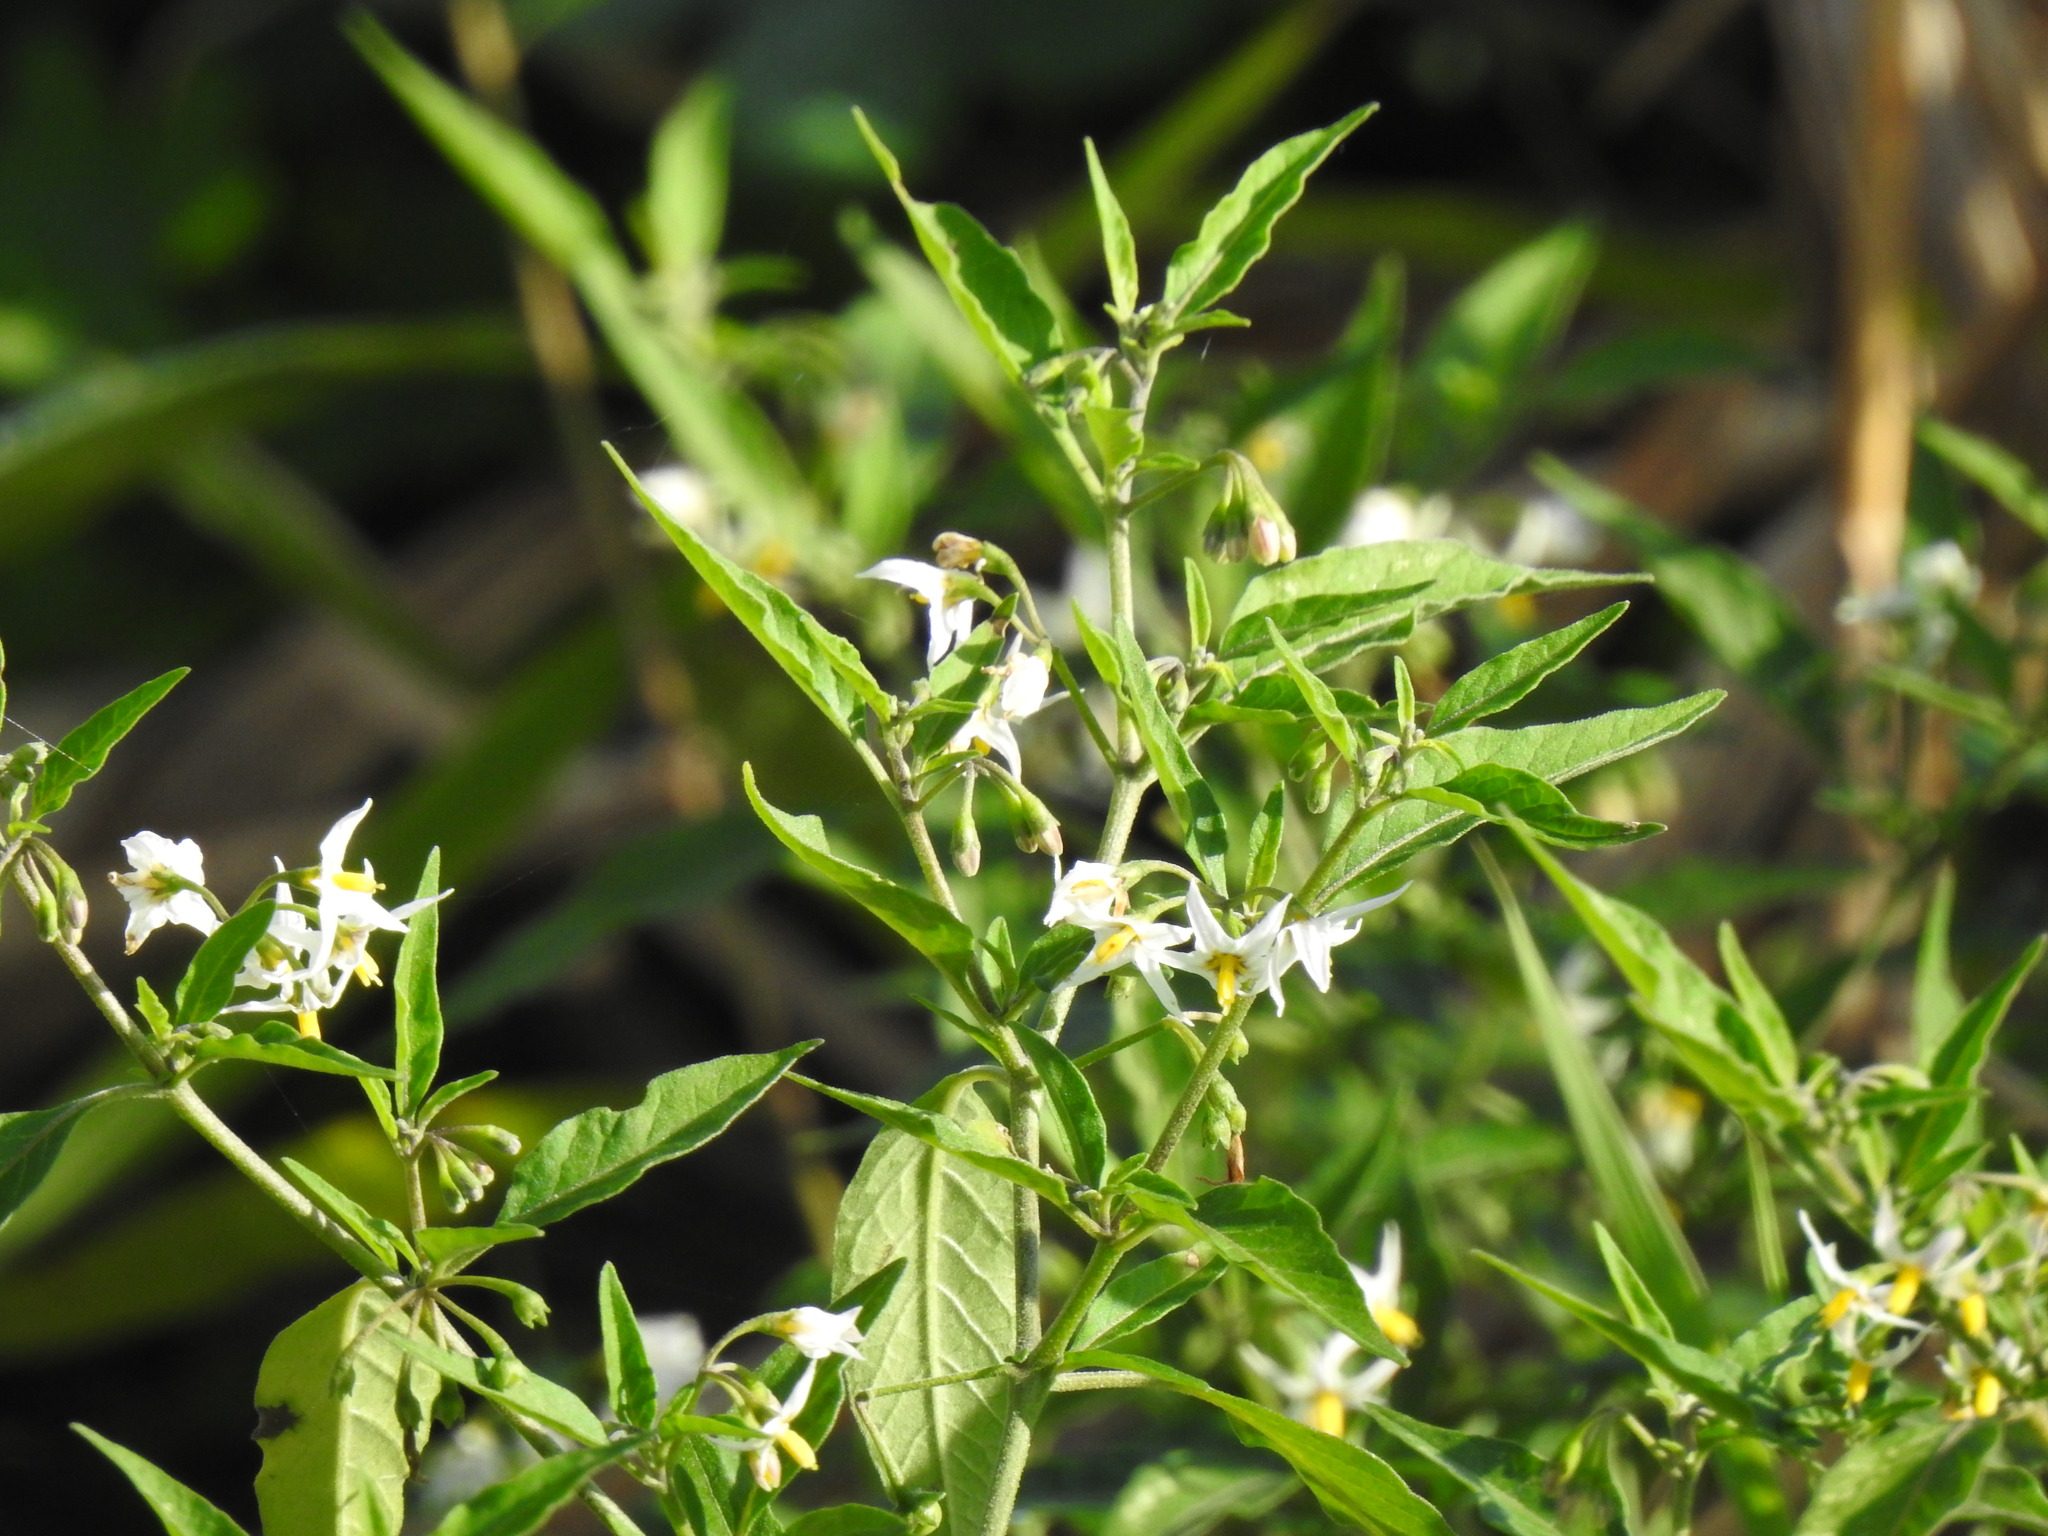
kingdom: Plantae
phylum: Tracheophyta
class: Magnoliopsida
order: Solanales
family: Solanaceae
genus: Solanum
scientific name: Solanum chenopodioides
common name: Tall nightshade
